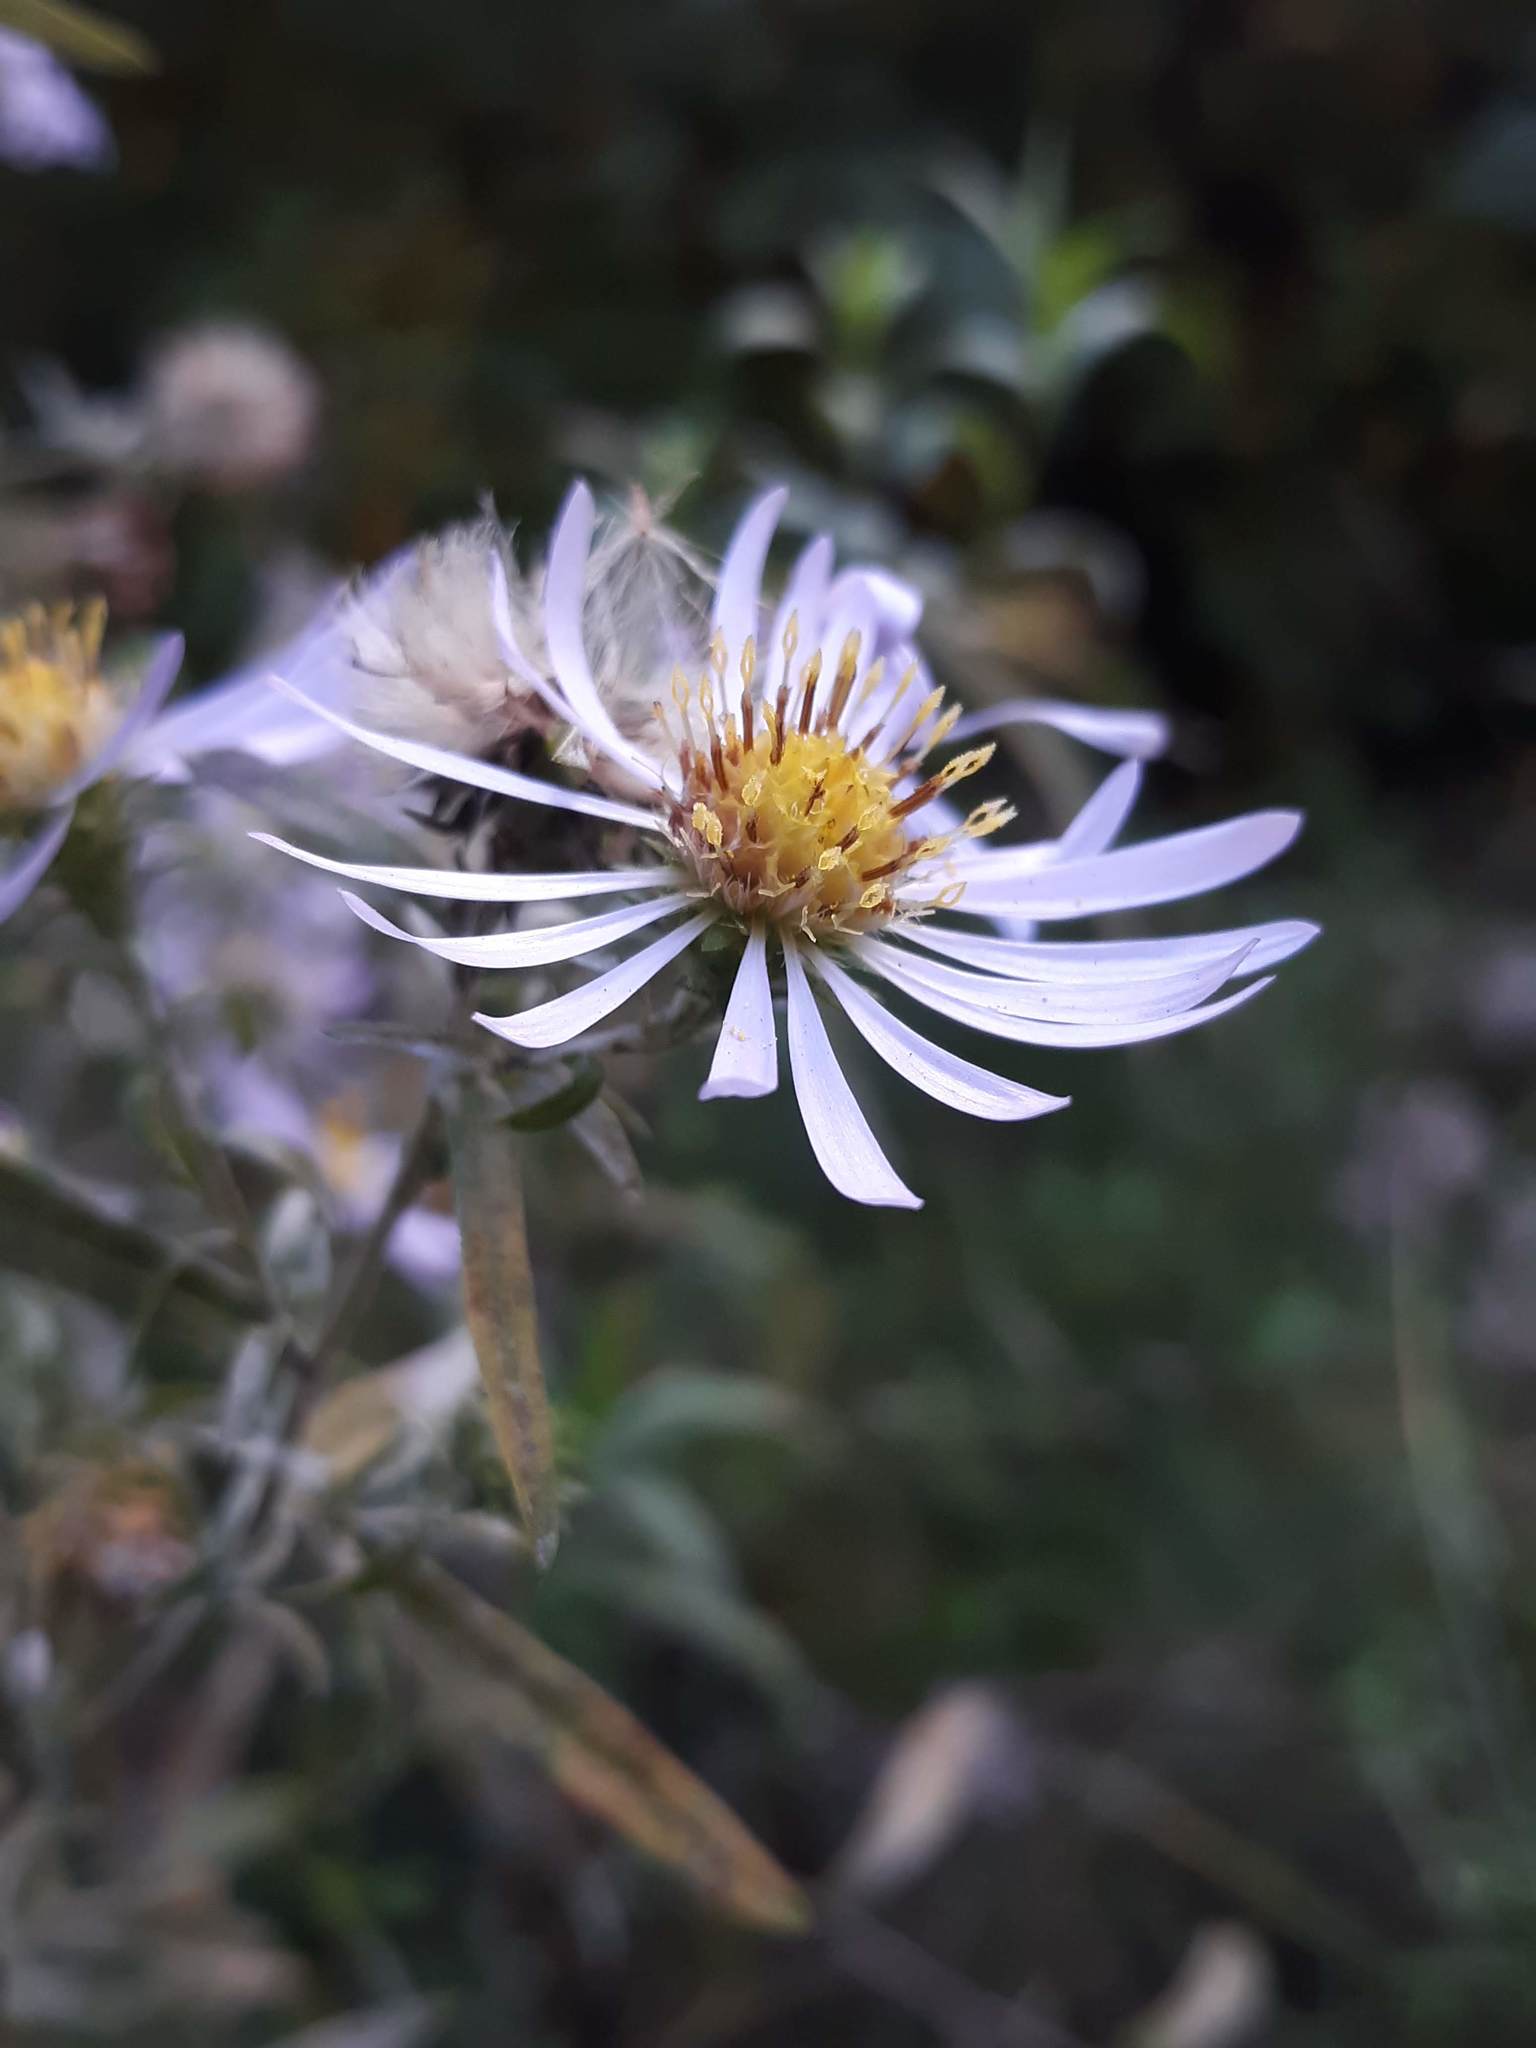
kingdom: Plantae
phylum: Tracheophyta
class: Magnoliopsida
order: Asterales
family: Asteraceae
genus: Symphyotrichum
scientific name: Symphyotrichum chilense
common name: Pacific aster
